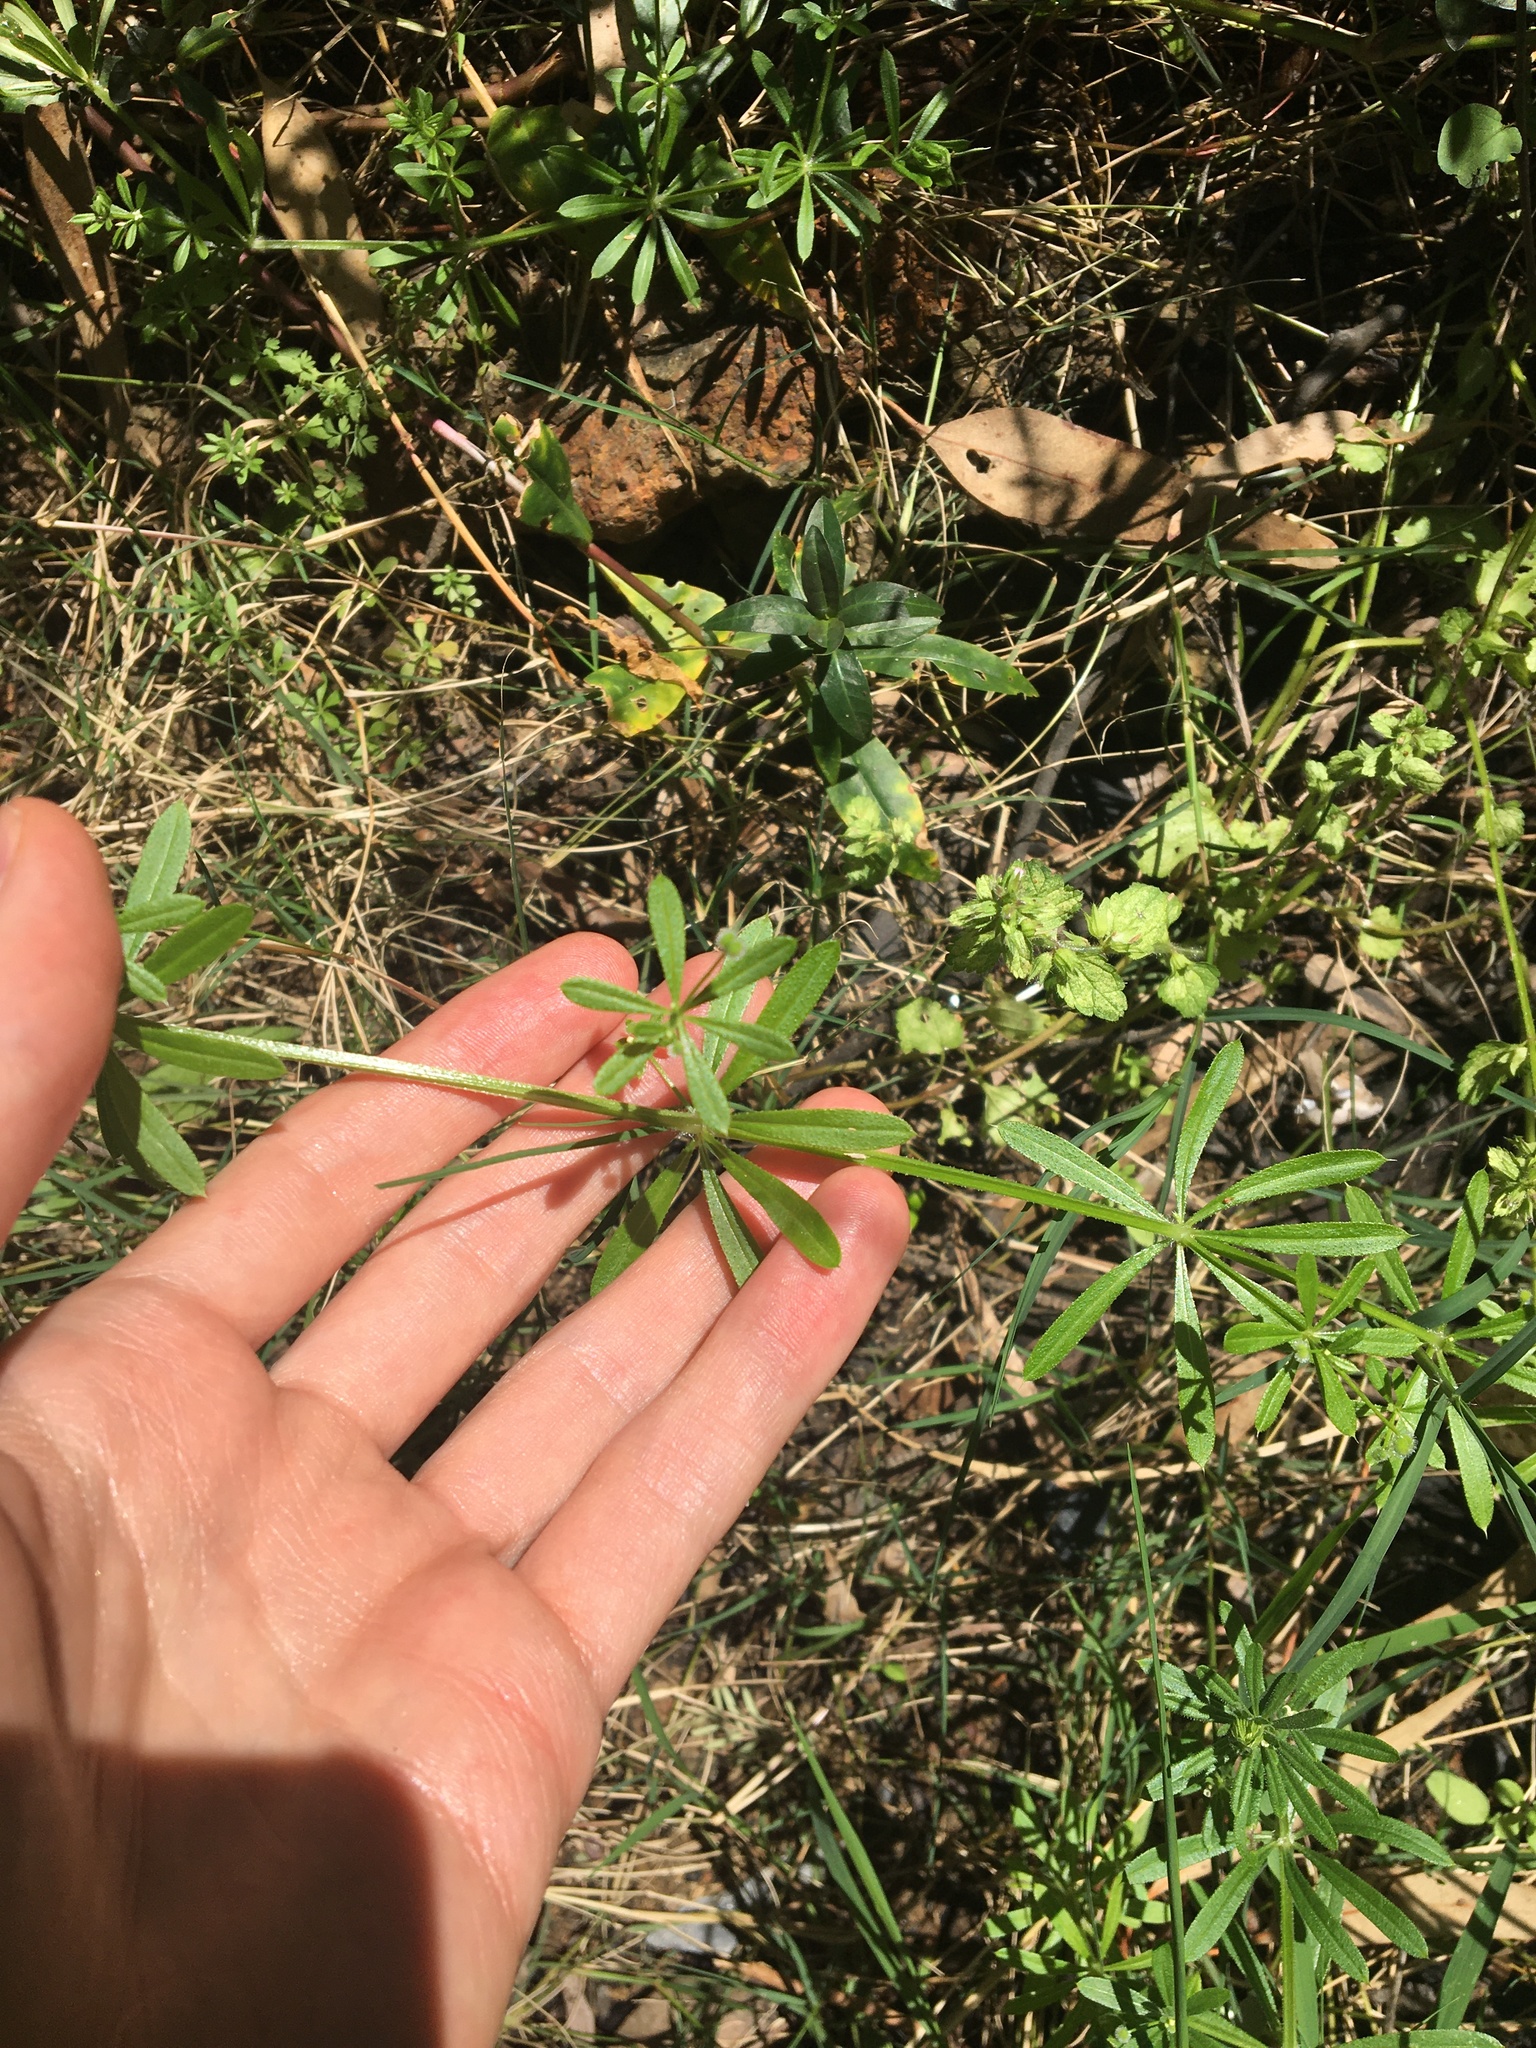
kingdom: Plantae
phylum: Tracheophyta
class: Magnoliopsida
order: Gentianales
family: Rubiaceae
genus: Galium
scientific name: Galium aparine
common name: Cleavers
